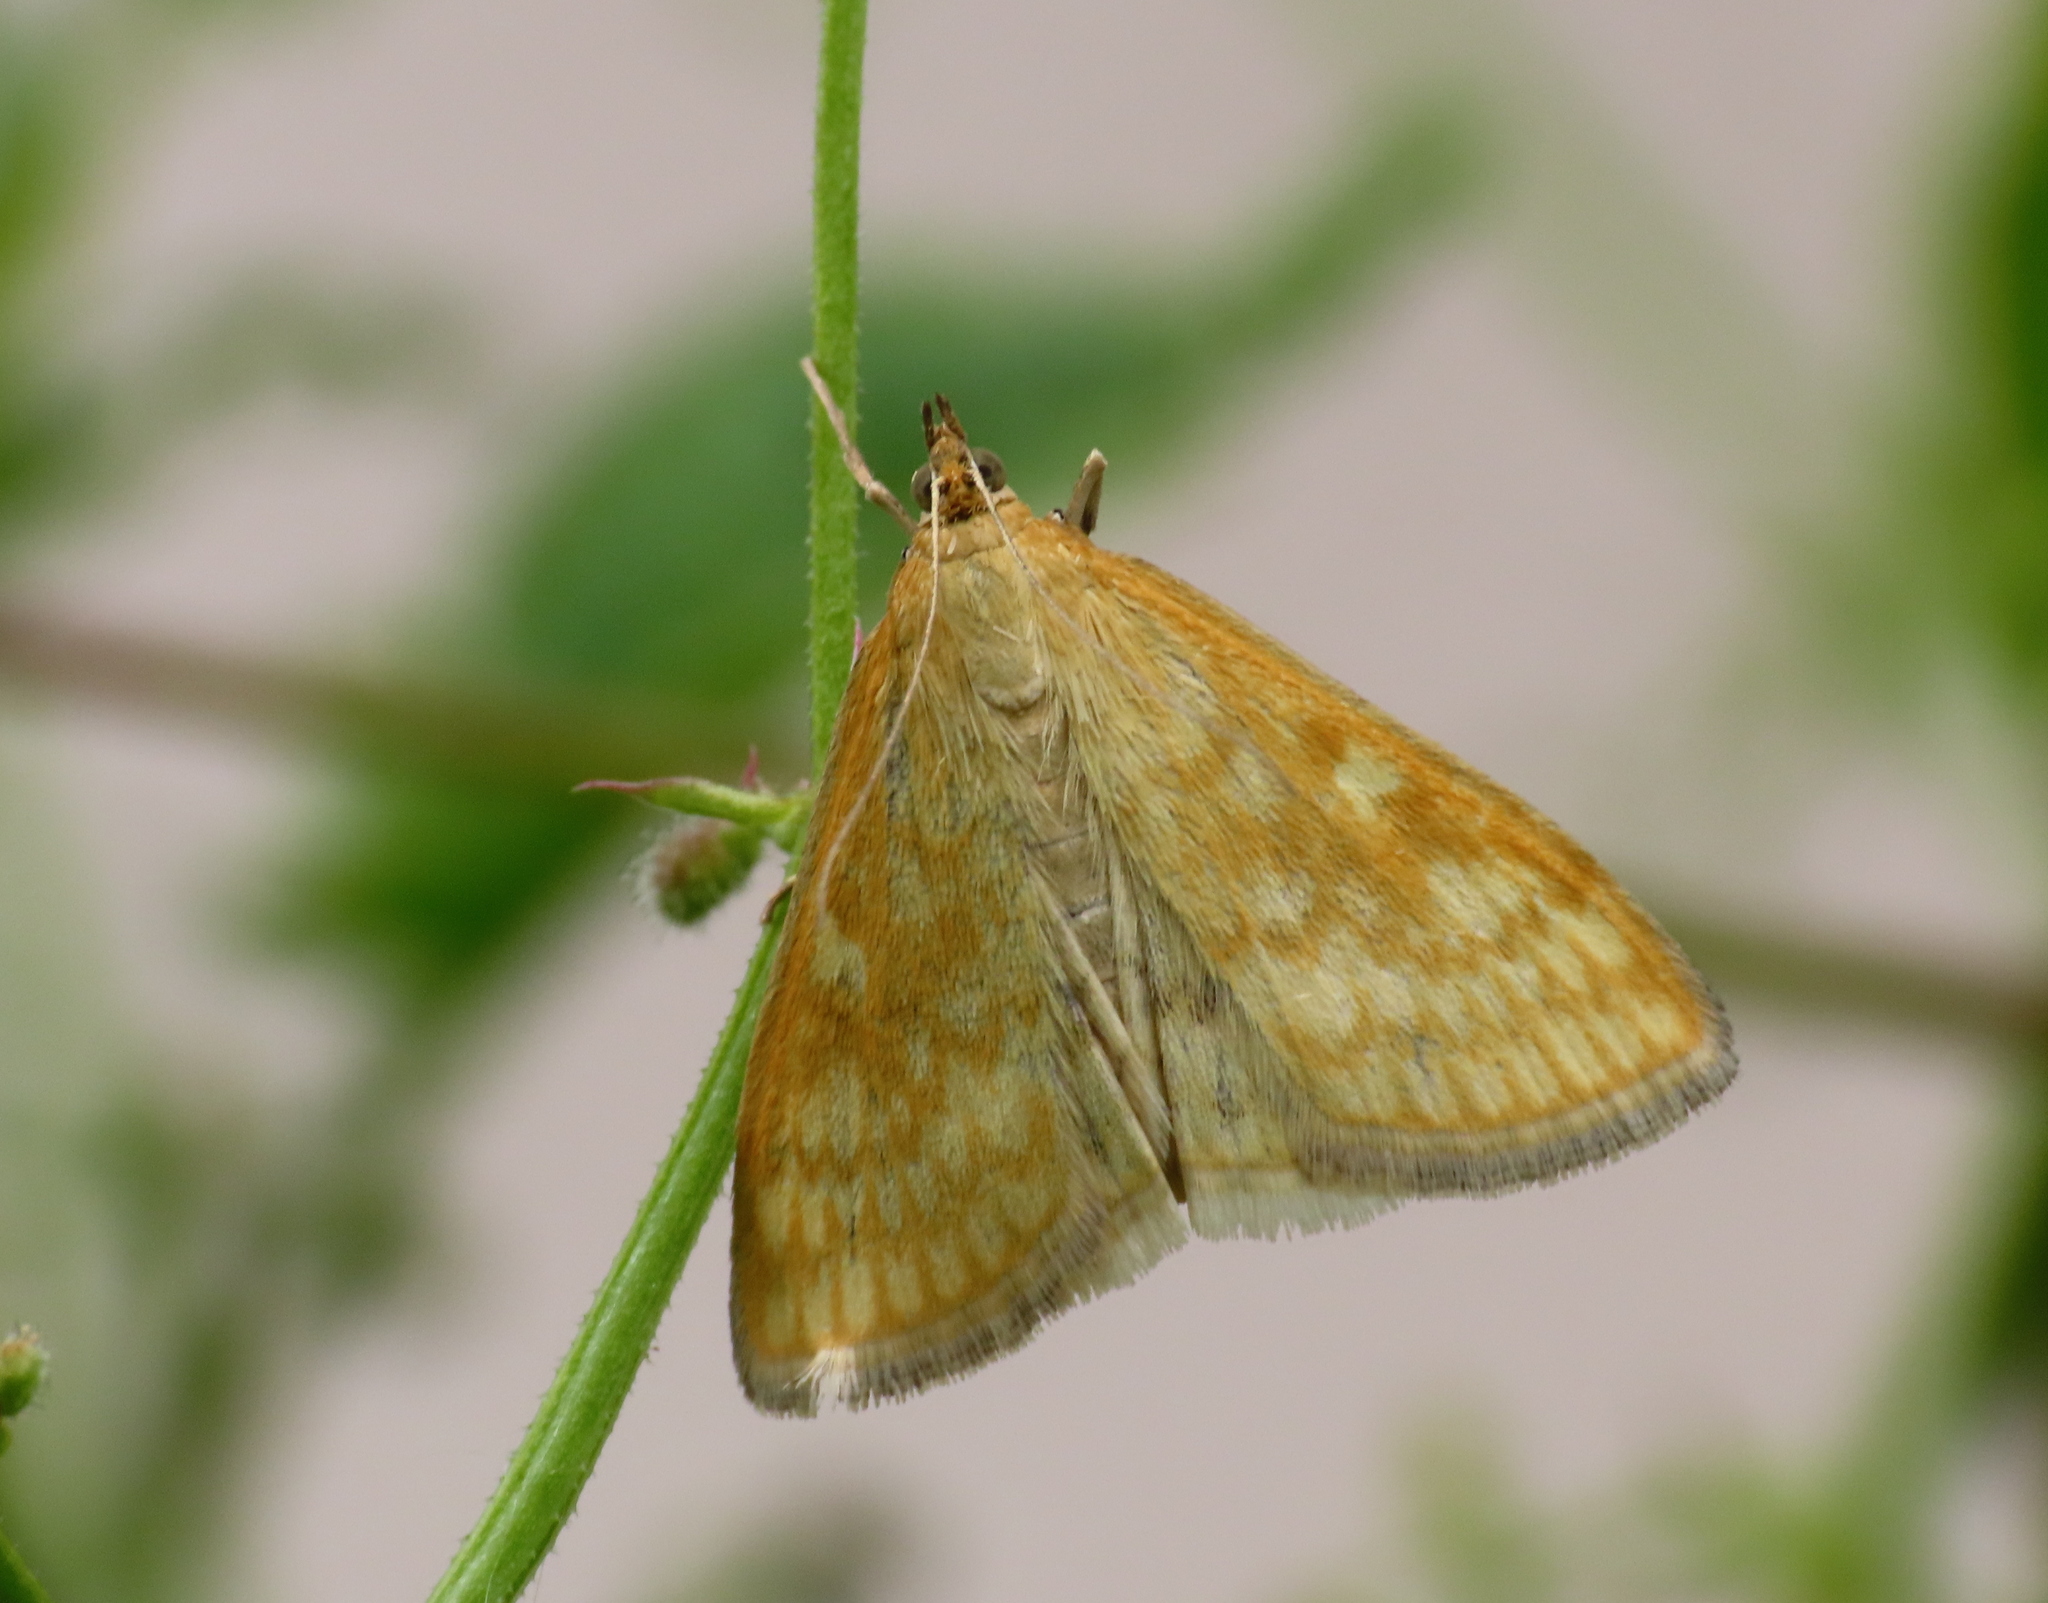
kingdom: Animalia
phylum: Arthropoda
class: Insecta
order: Lepidoptera
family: Crambidae
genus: Sitochroa
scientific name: Sitochroa verticalis
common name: Lesser pearl
